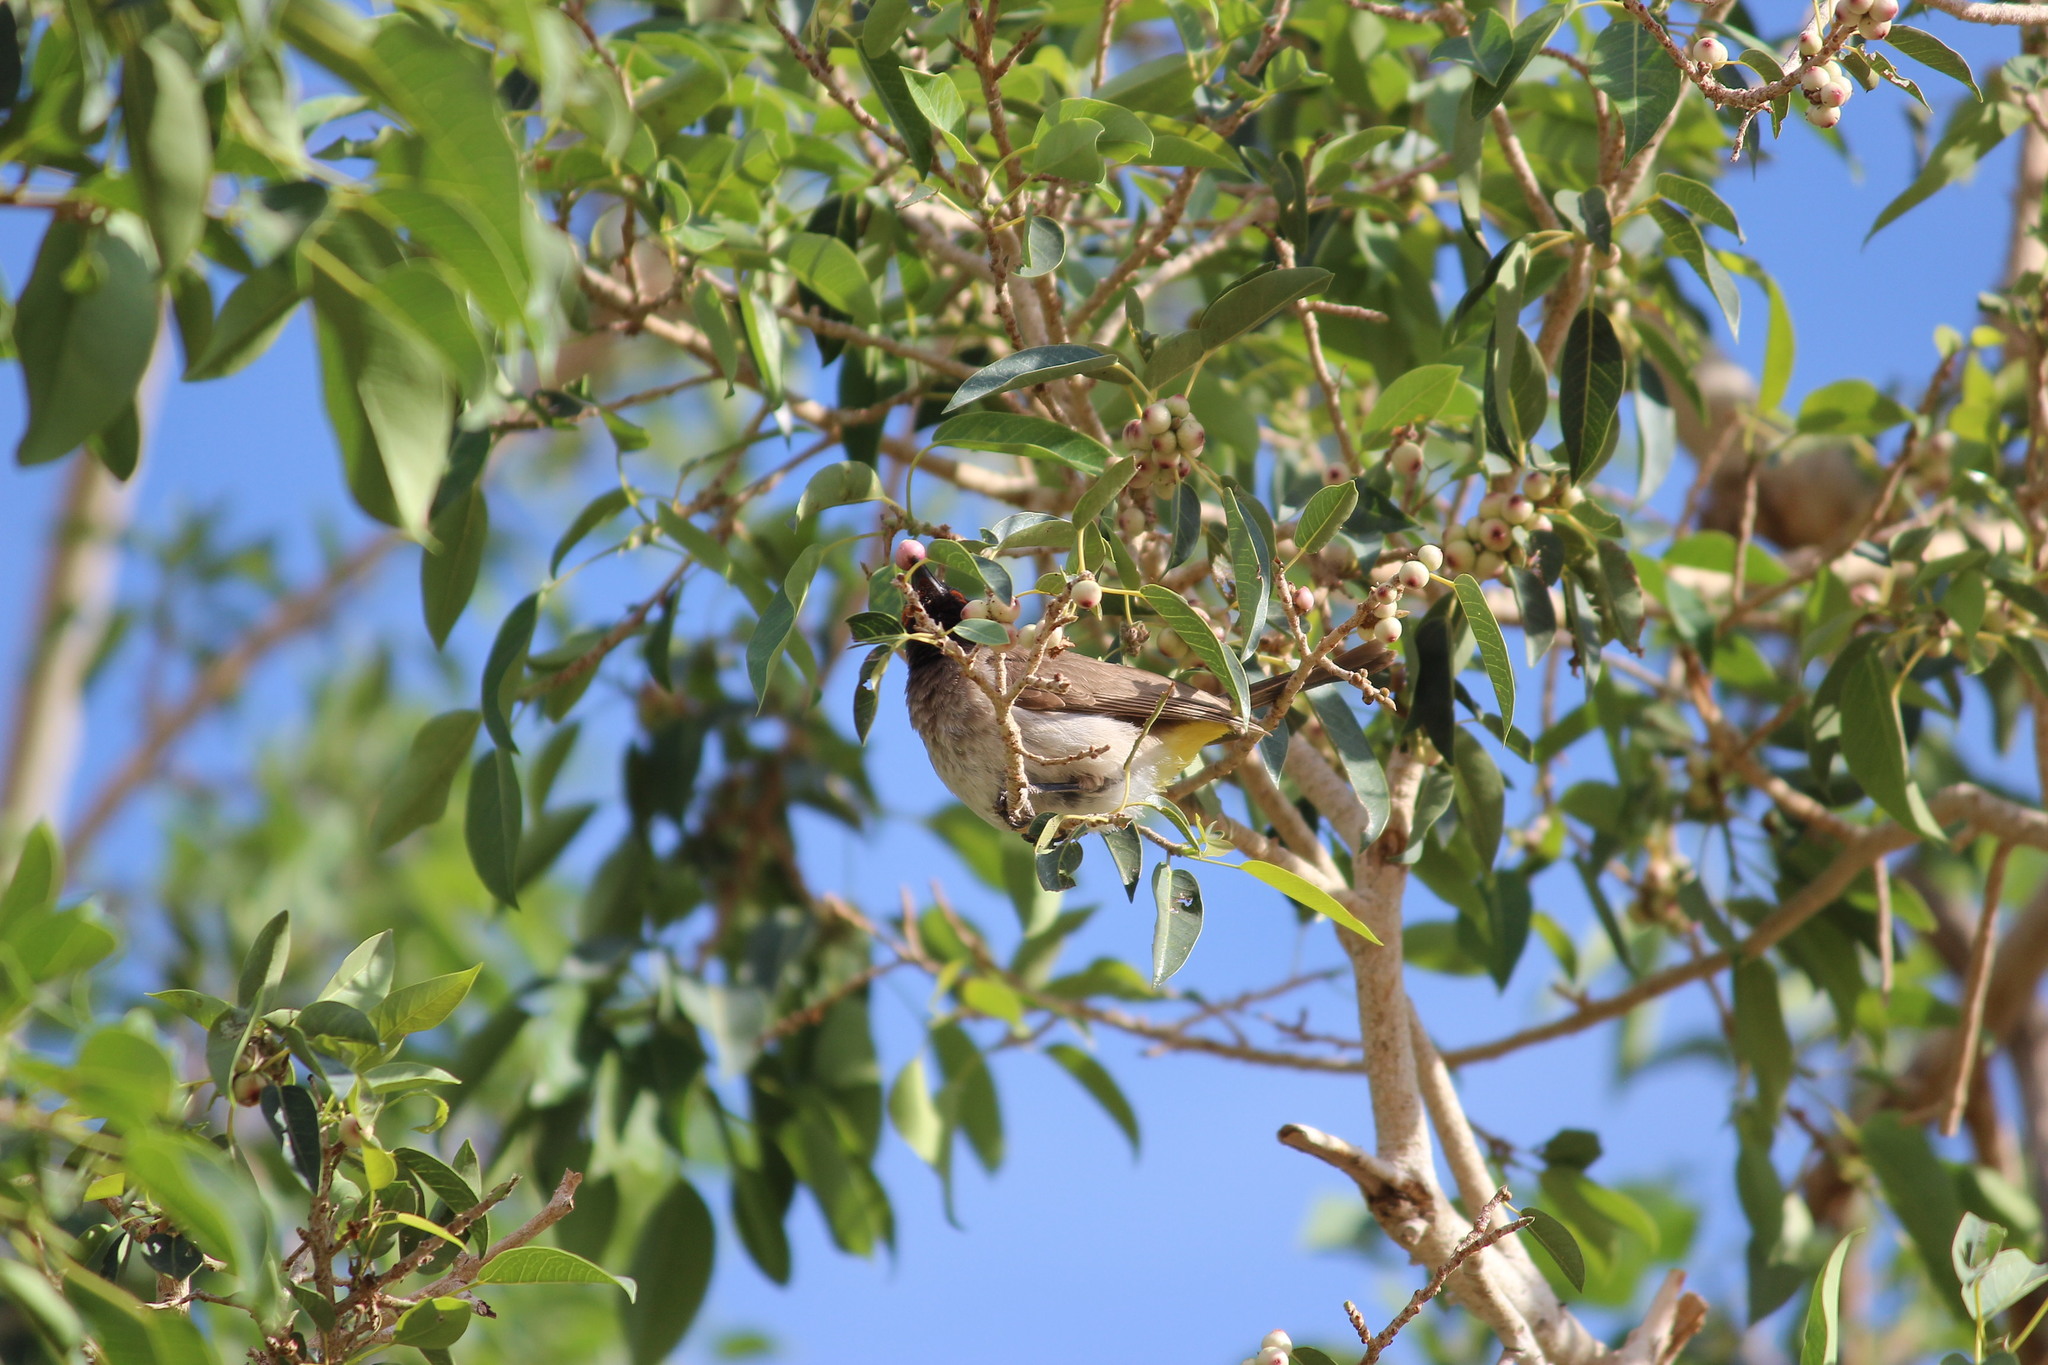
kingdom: Animalia
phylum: Chordata
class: Aves
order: Passeriformes
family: Pycnonotidae
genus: Pycnonotus
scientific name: Pycnonotus nigricans
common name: African red-eyed bulbul
